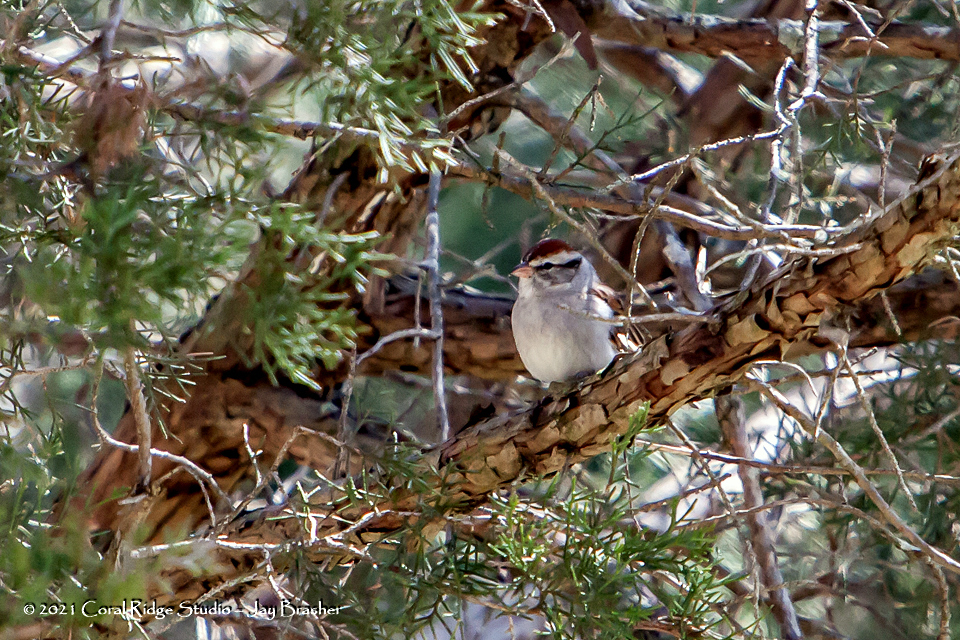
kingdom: Animalia
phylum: Chordata
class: Aves
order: Passeriformes
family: Passerellidae
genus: Spizella
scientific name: Spizella passerina
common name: Chipping sparrow
